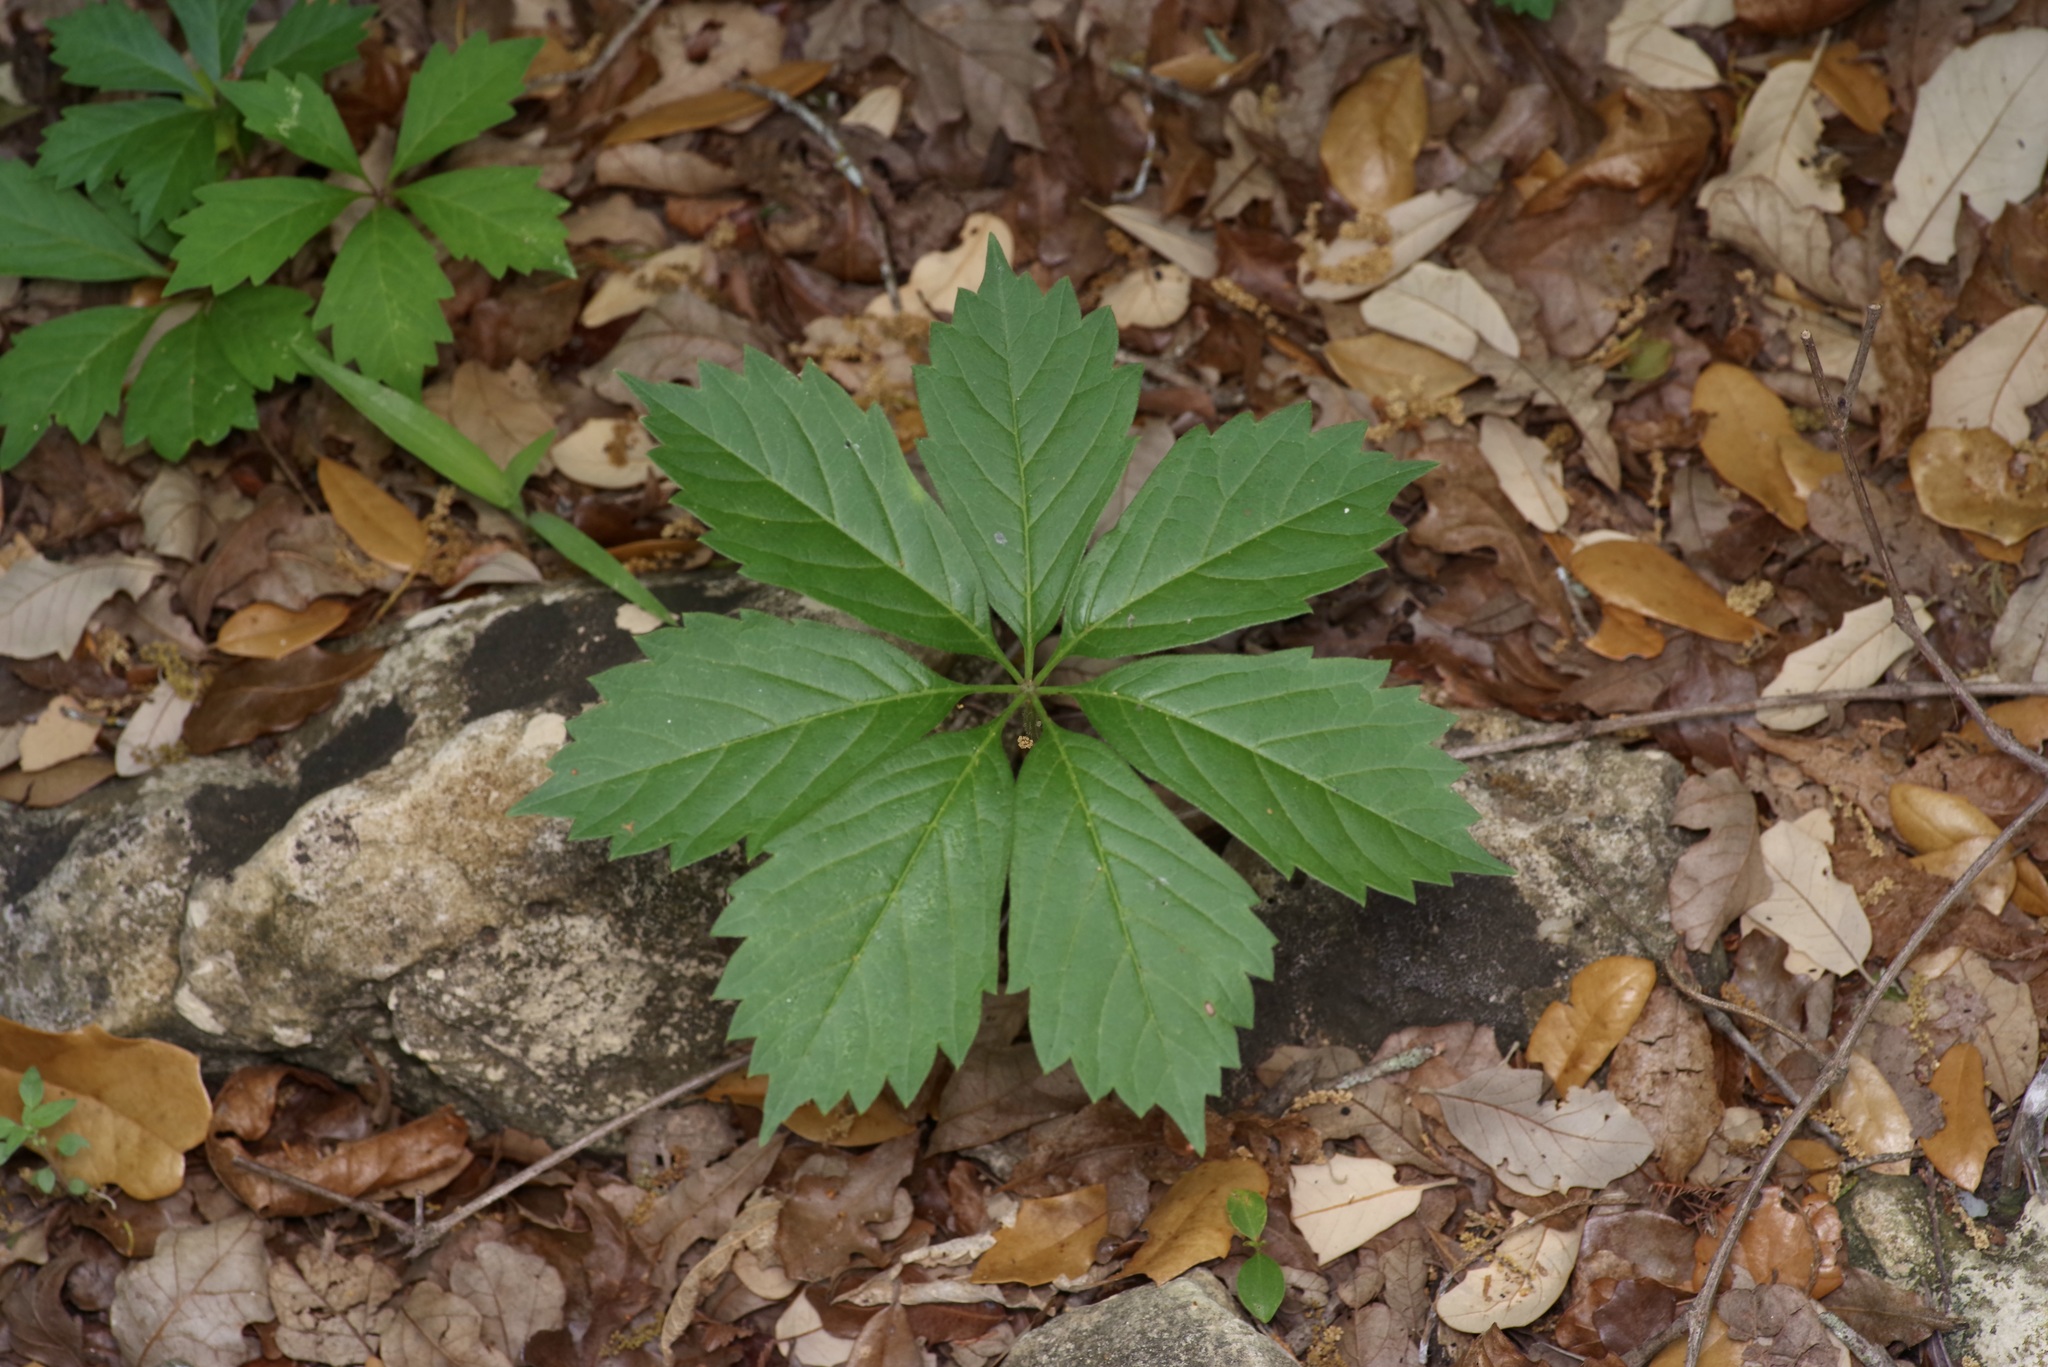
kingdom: Plantae
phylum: Tracheophyta
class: Magnoliopsida
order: Vitales
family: Vitaceae
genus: Parthenocissus
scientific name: Parthenocissus heptaphylla
